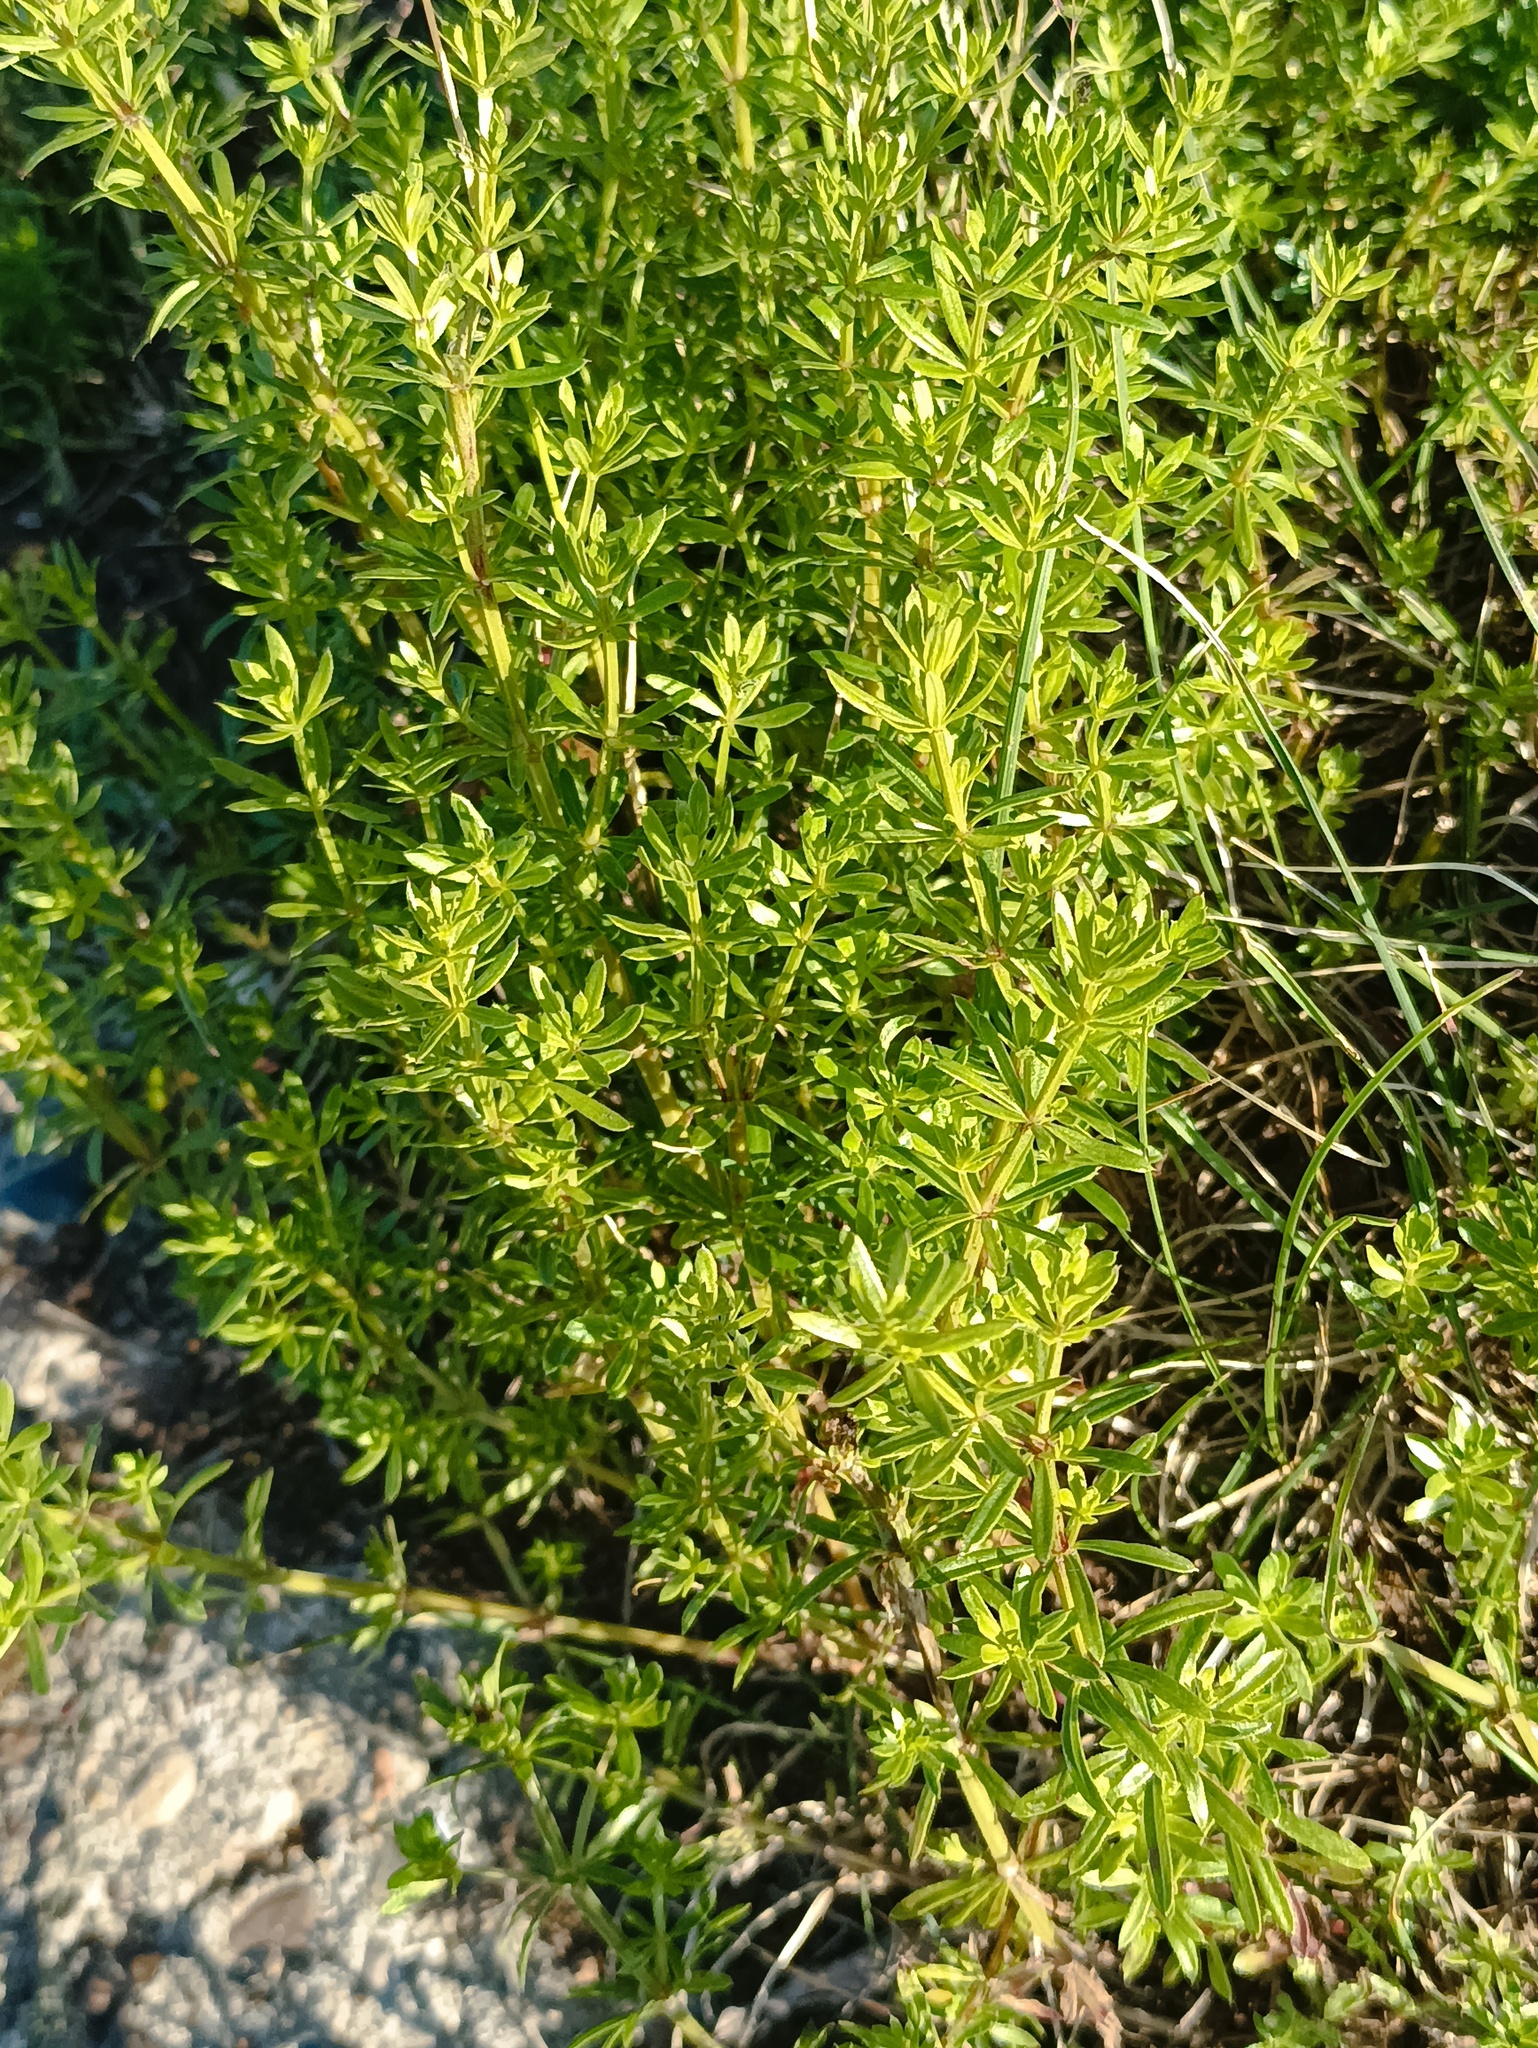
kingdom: Plantae
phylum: Tracheophyta
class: Magnoliopsida
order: Gentianales
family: Rubiaceae
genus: Galium
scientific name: Galium mollugo
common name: Hedge bedstraw
